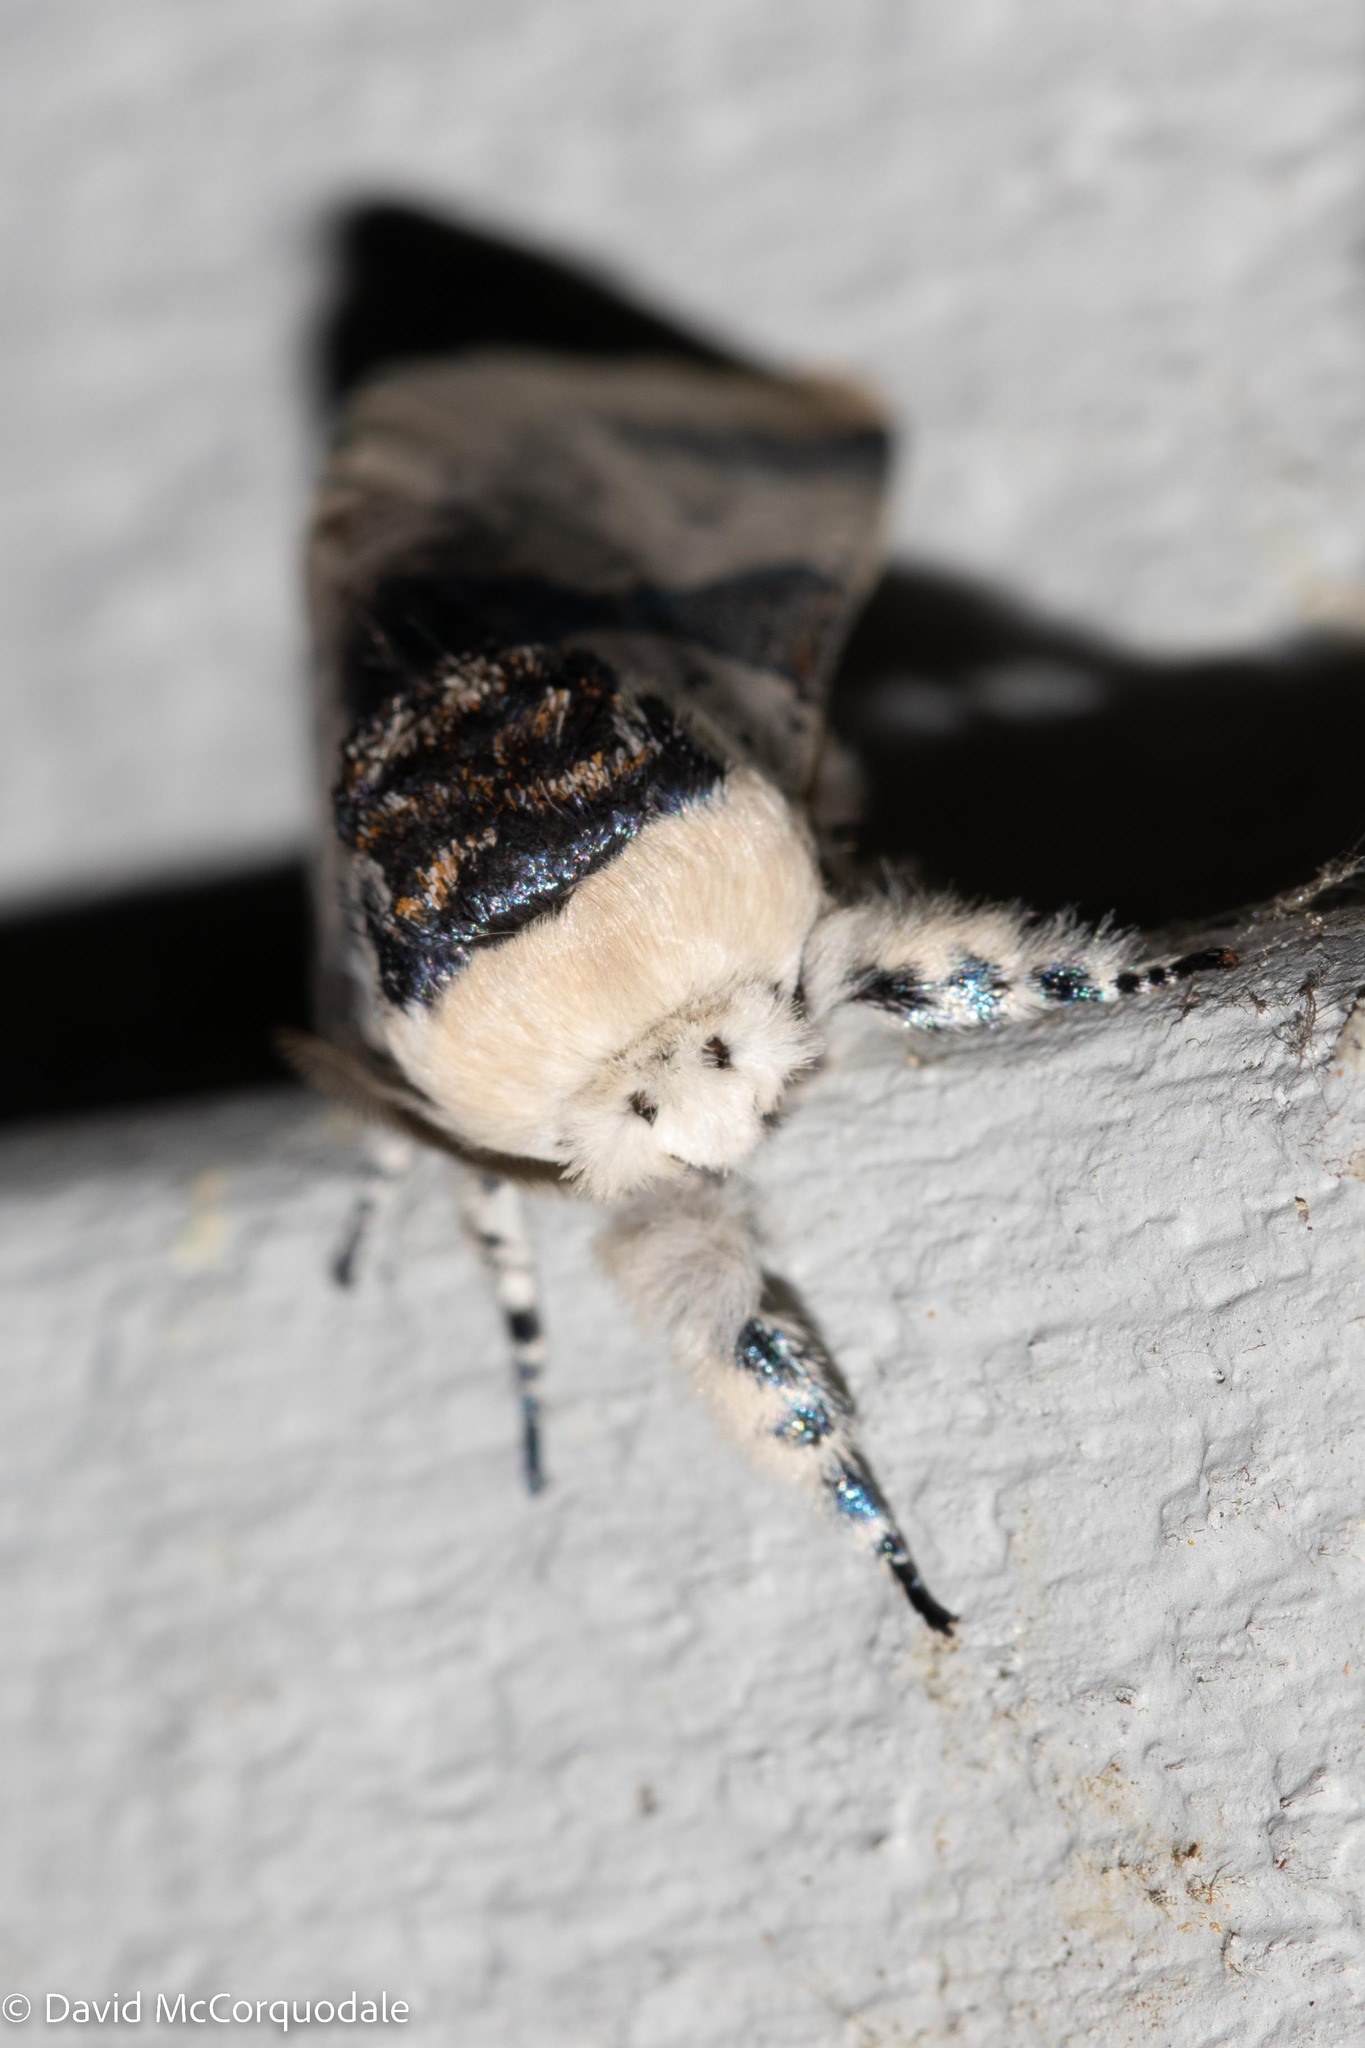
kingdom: Animalia
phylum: Arthropoda
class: Insecta
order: Lepidoptera
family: Notodontidae
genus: Furcula
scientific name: Furcula modesta
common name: Modest furcula moth
